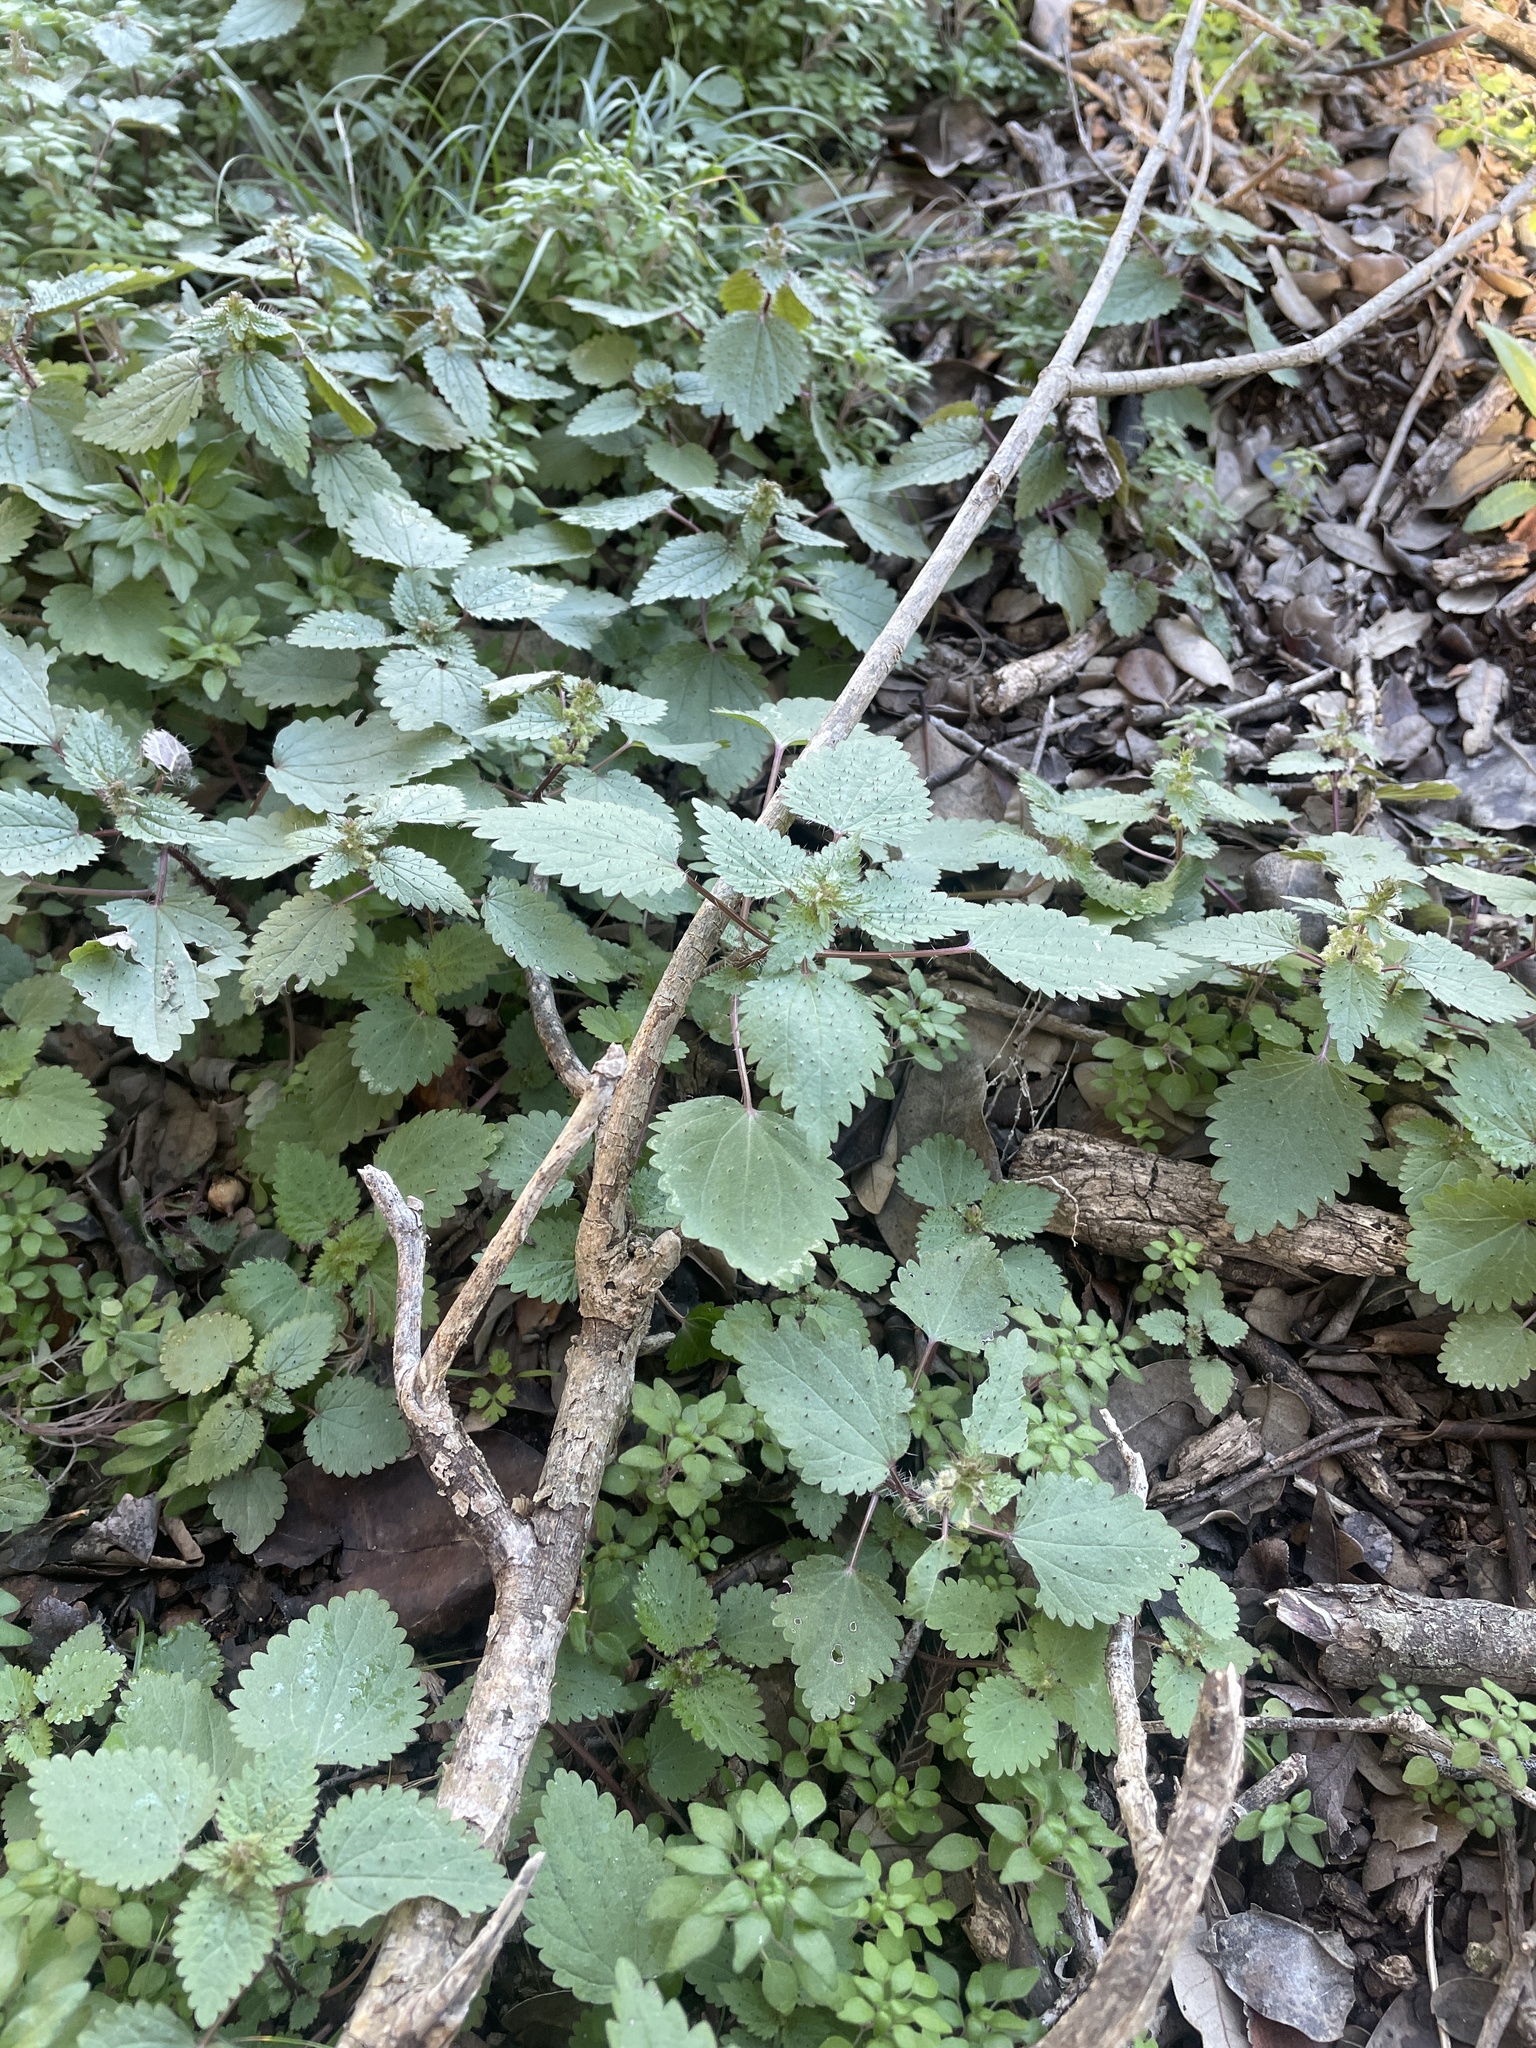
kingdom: Plantae
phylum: Tracheophyta
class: Magnoliopsida
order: Rosales
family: Urticaceae
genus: Urtica
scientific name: Urtica chamaedryoides
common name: Heart-leaf nettle
